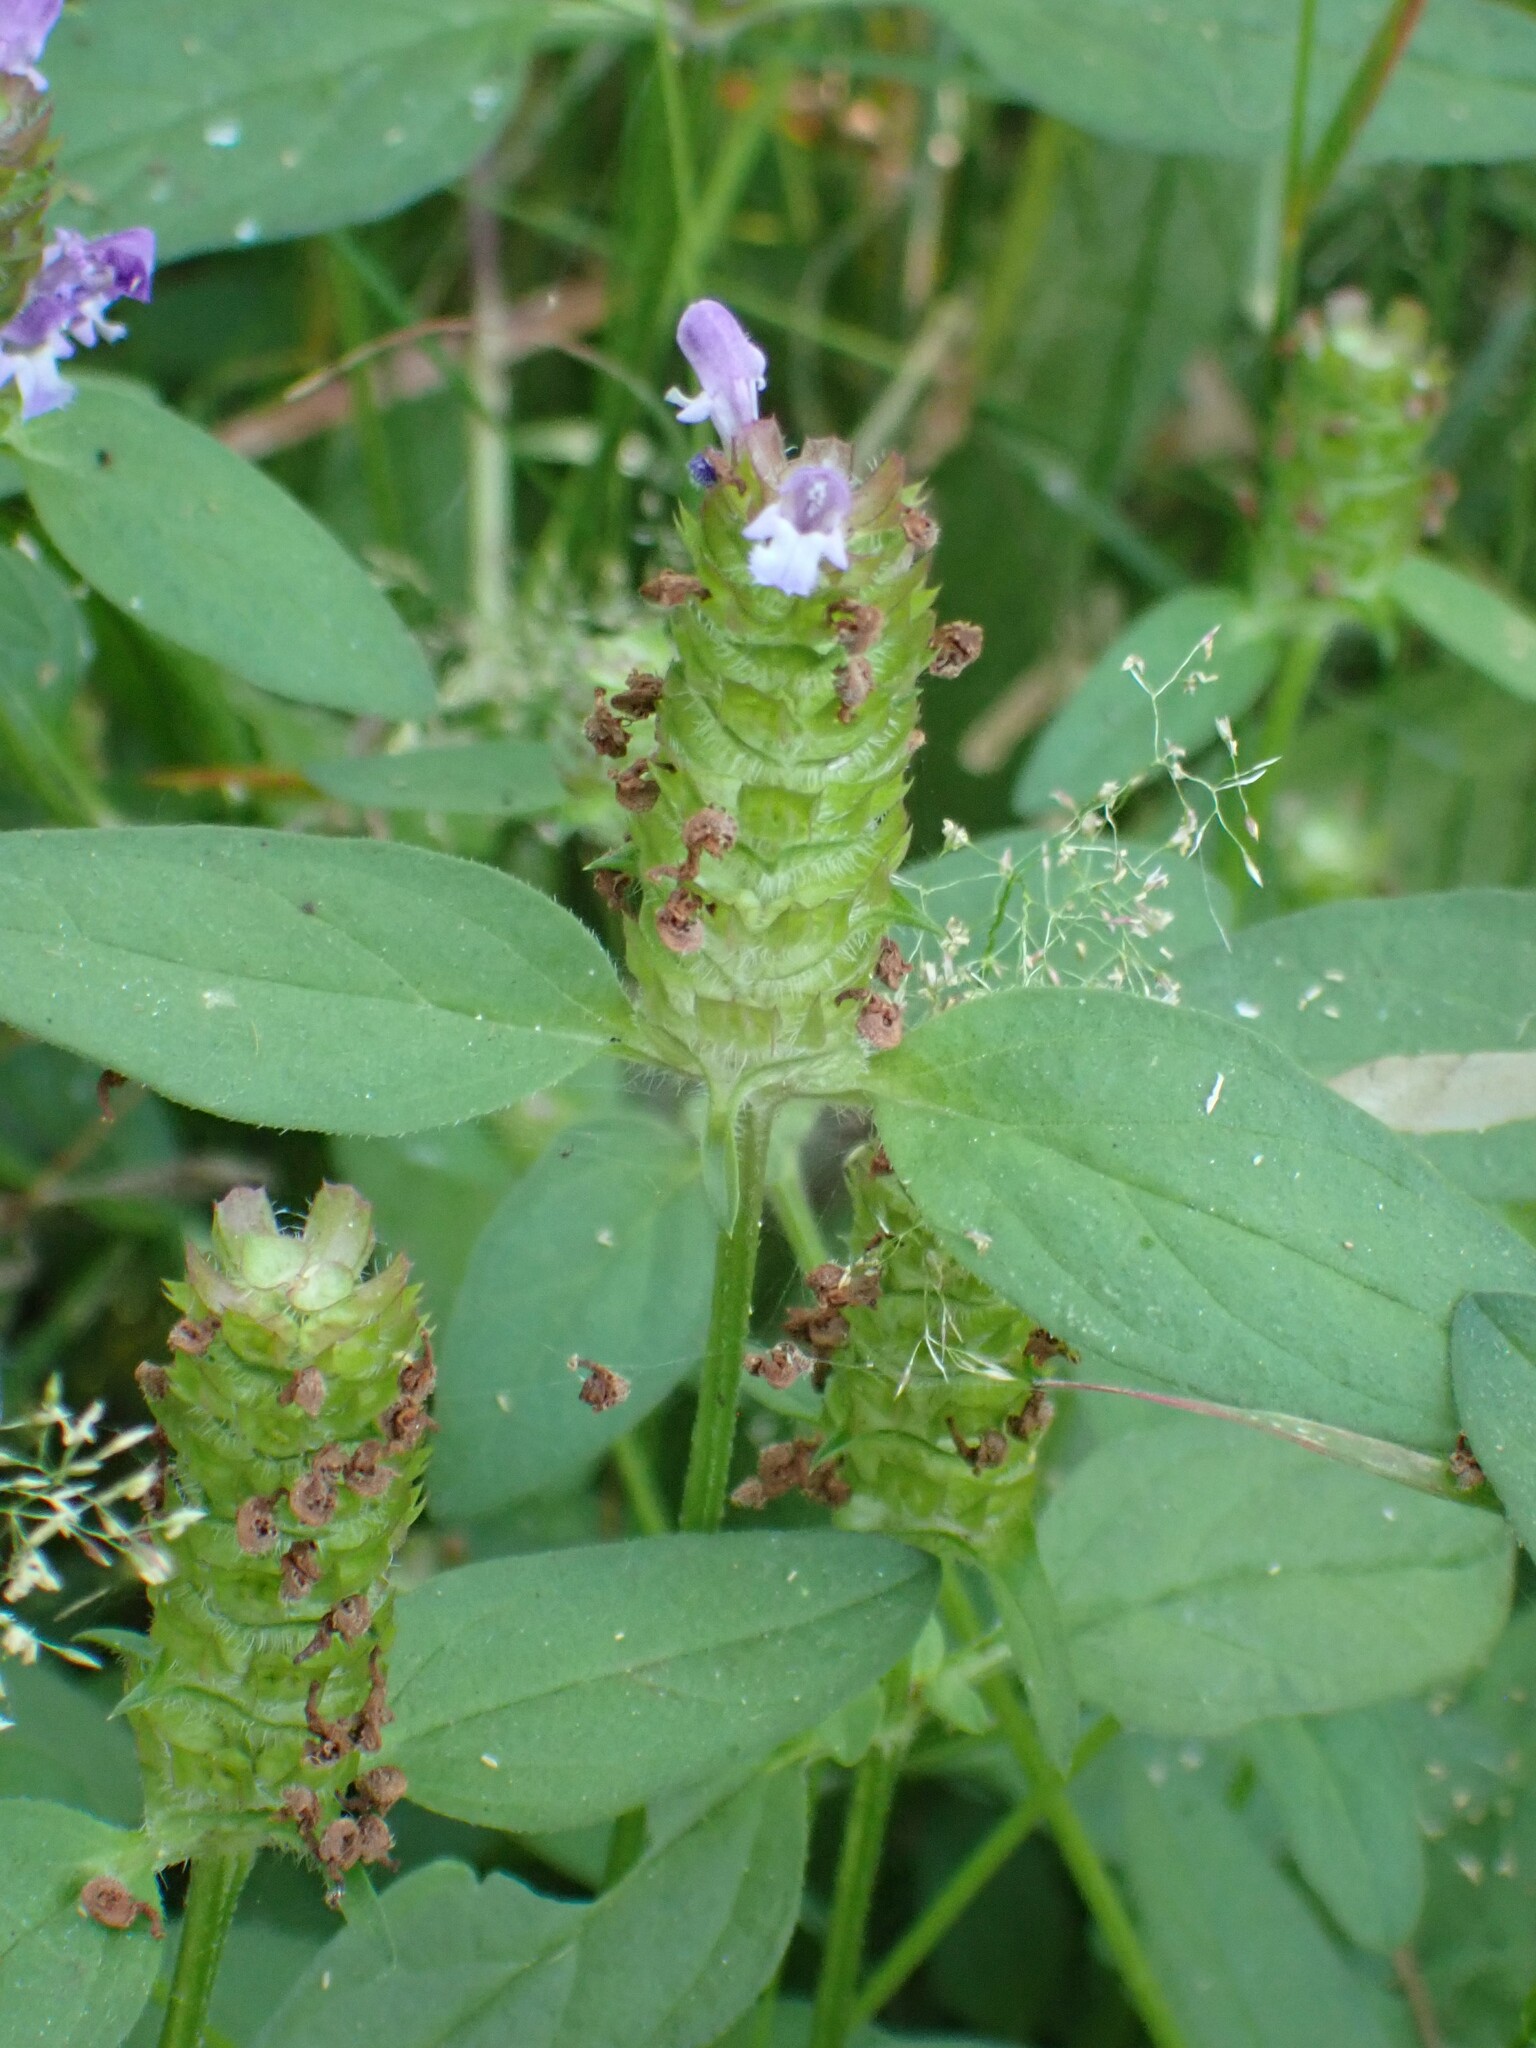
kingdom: Plantae
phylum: Tracheophyta
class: Magnoliopsida
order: Lamiales
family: Lamiaceae
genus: Prunella
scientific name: Prunella vulgaris
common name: Heal-all
